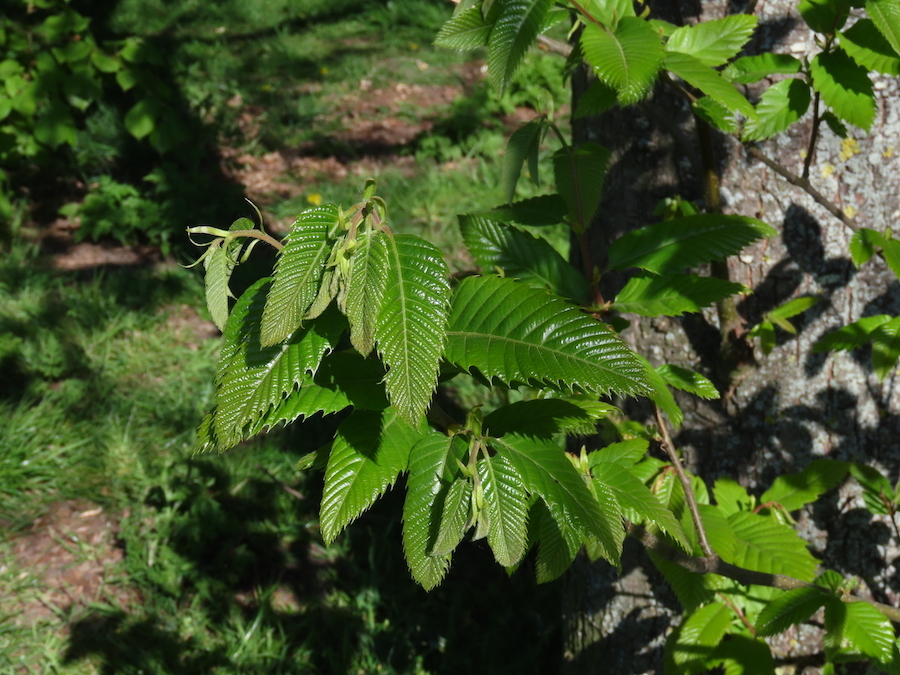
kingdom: Plantae
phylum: Tracheophyta
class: Magnoliopsida
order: Fagales
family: Fagaceae
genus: Castanea
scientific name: Castanea sativa
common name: Sweet chestnut
